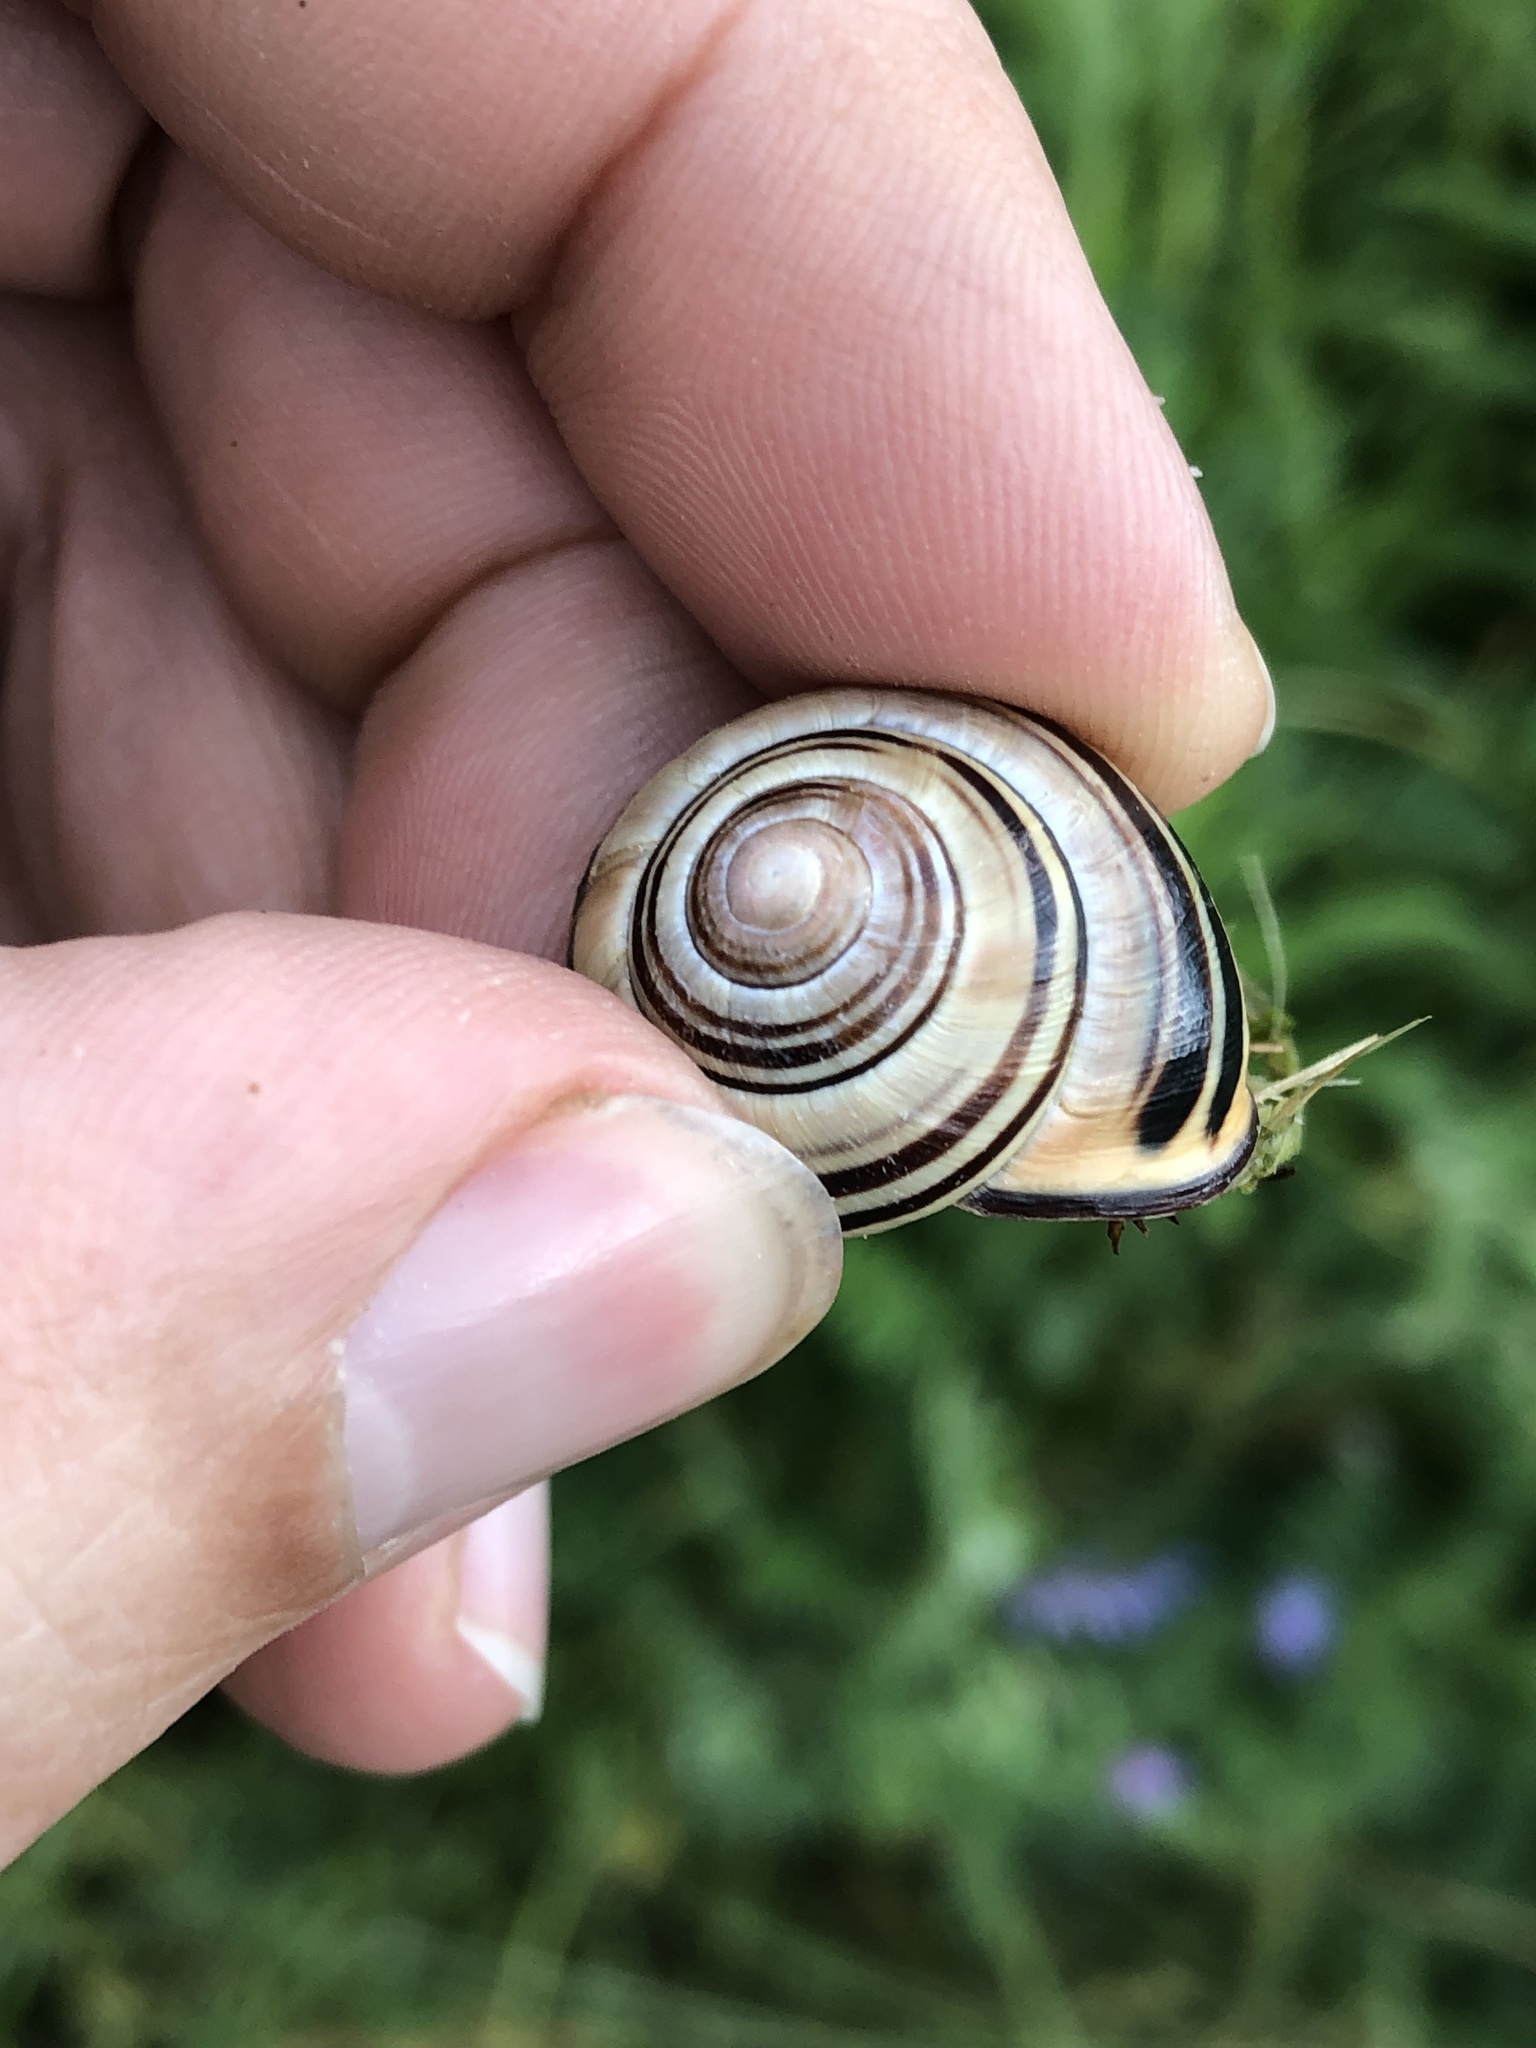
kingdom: Animalia
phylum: Mollusca
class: Gastropoda
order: Stylommatophora
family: Helicidae
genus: Cepaea
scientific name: Cepaea nemoralis
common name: Grovesnail
